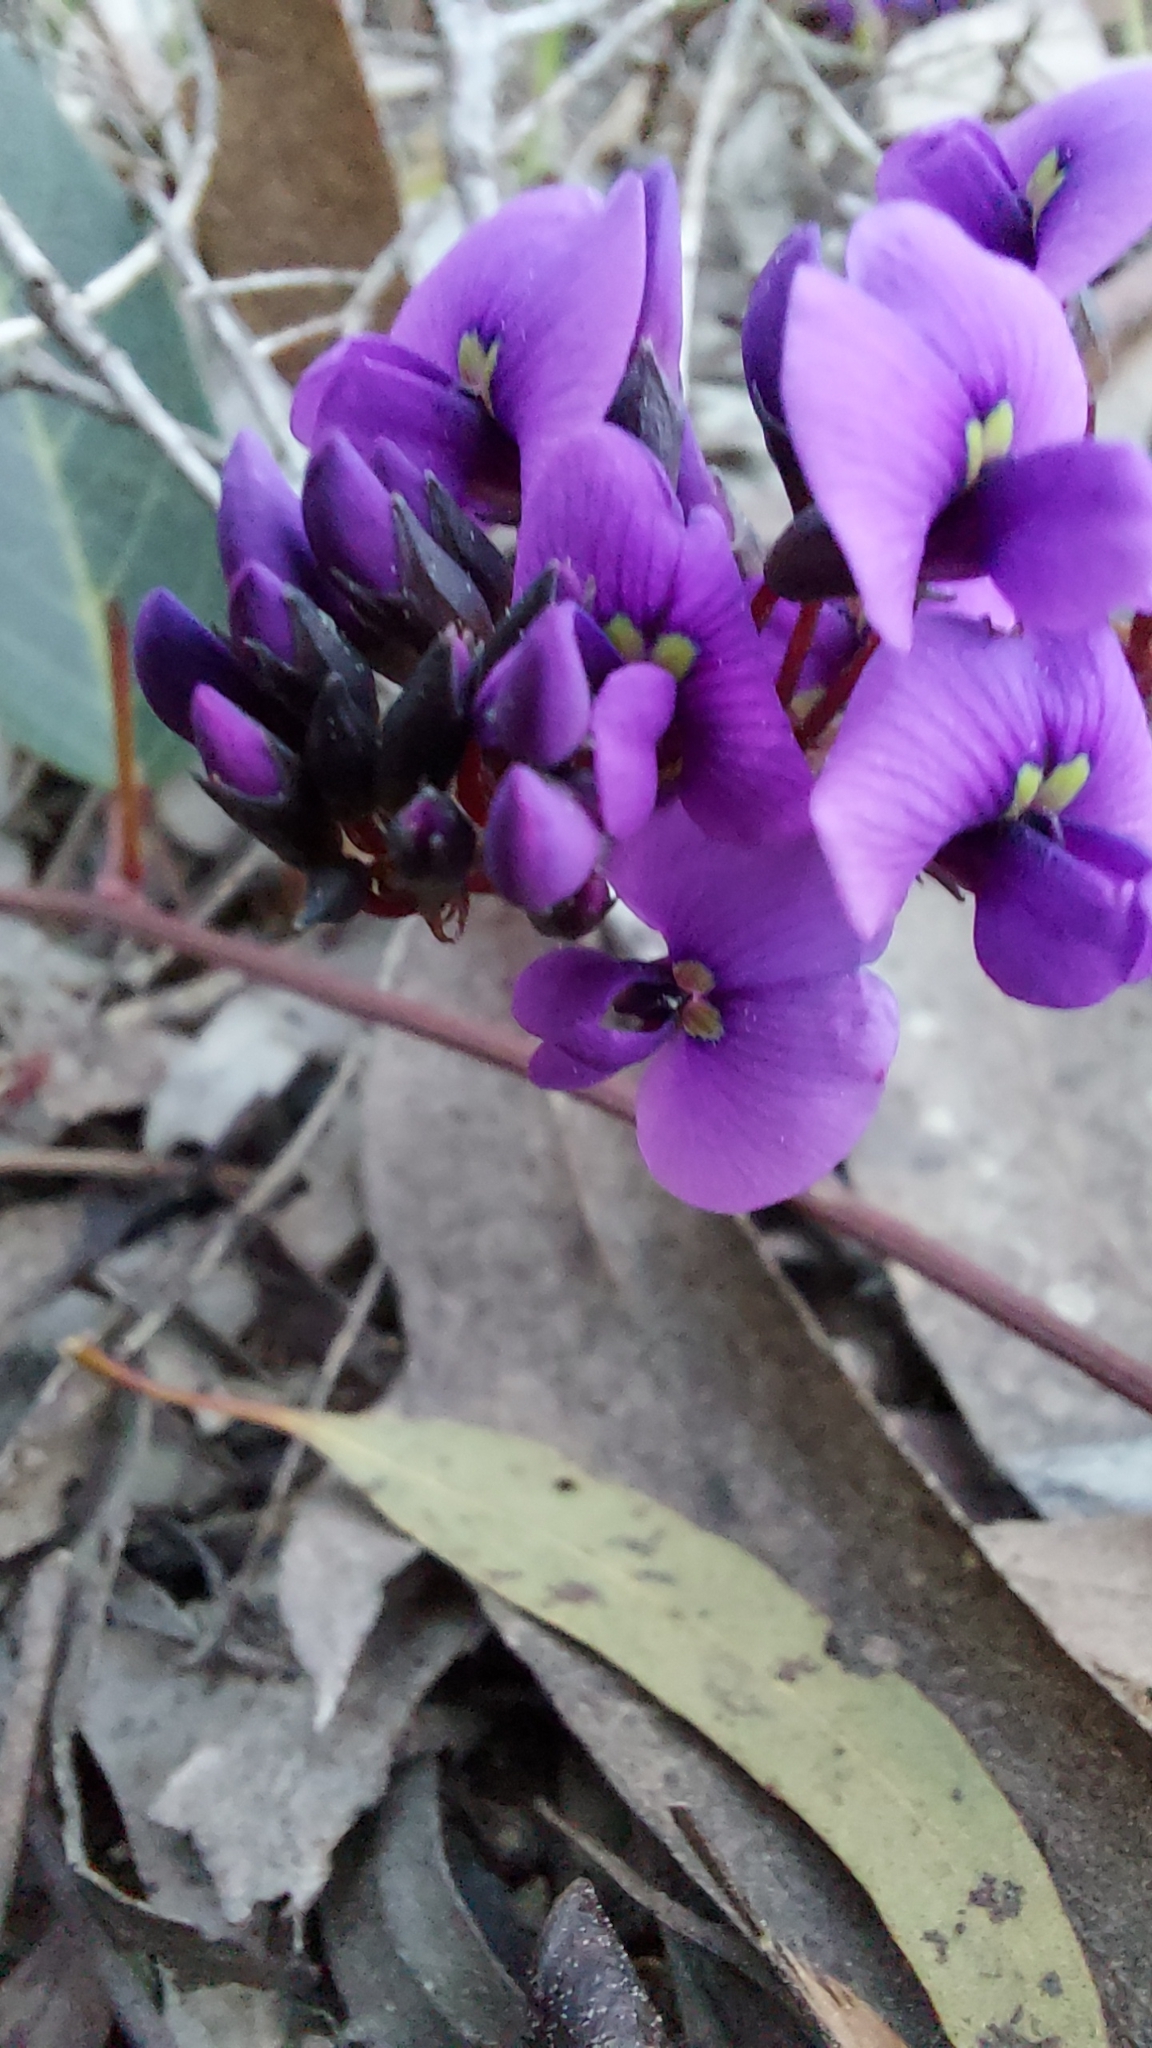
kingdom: Plantae
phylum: Tracheophyta
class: Magnoliopsida
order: Fabales
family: Fabaceae
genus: Hardenbergia
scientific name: Hardenbergia violacea
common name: Coral-pea
